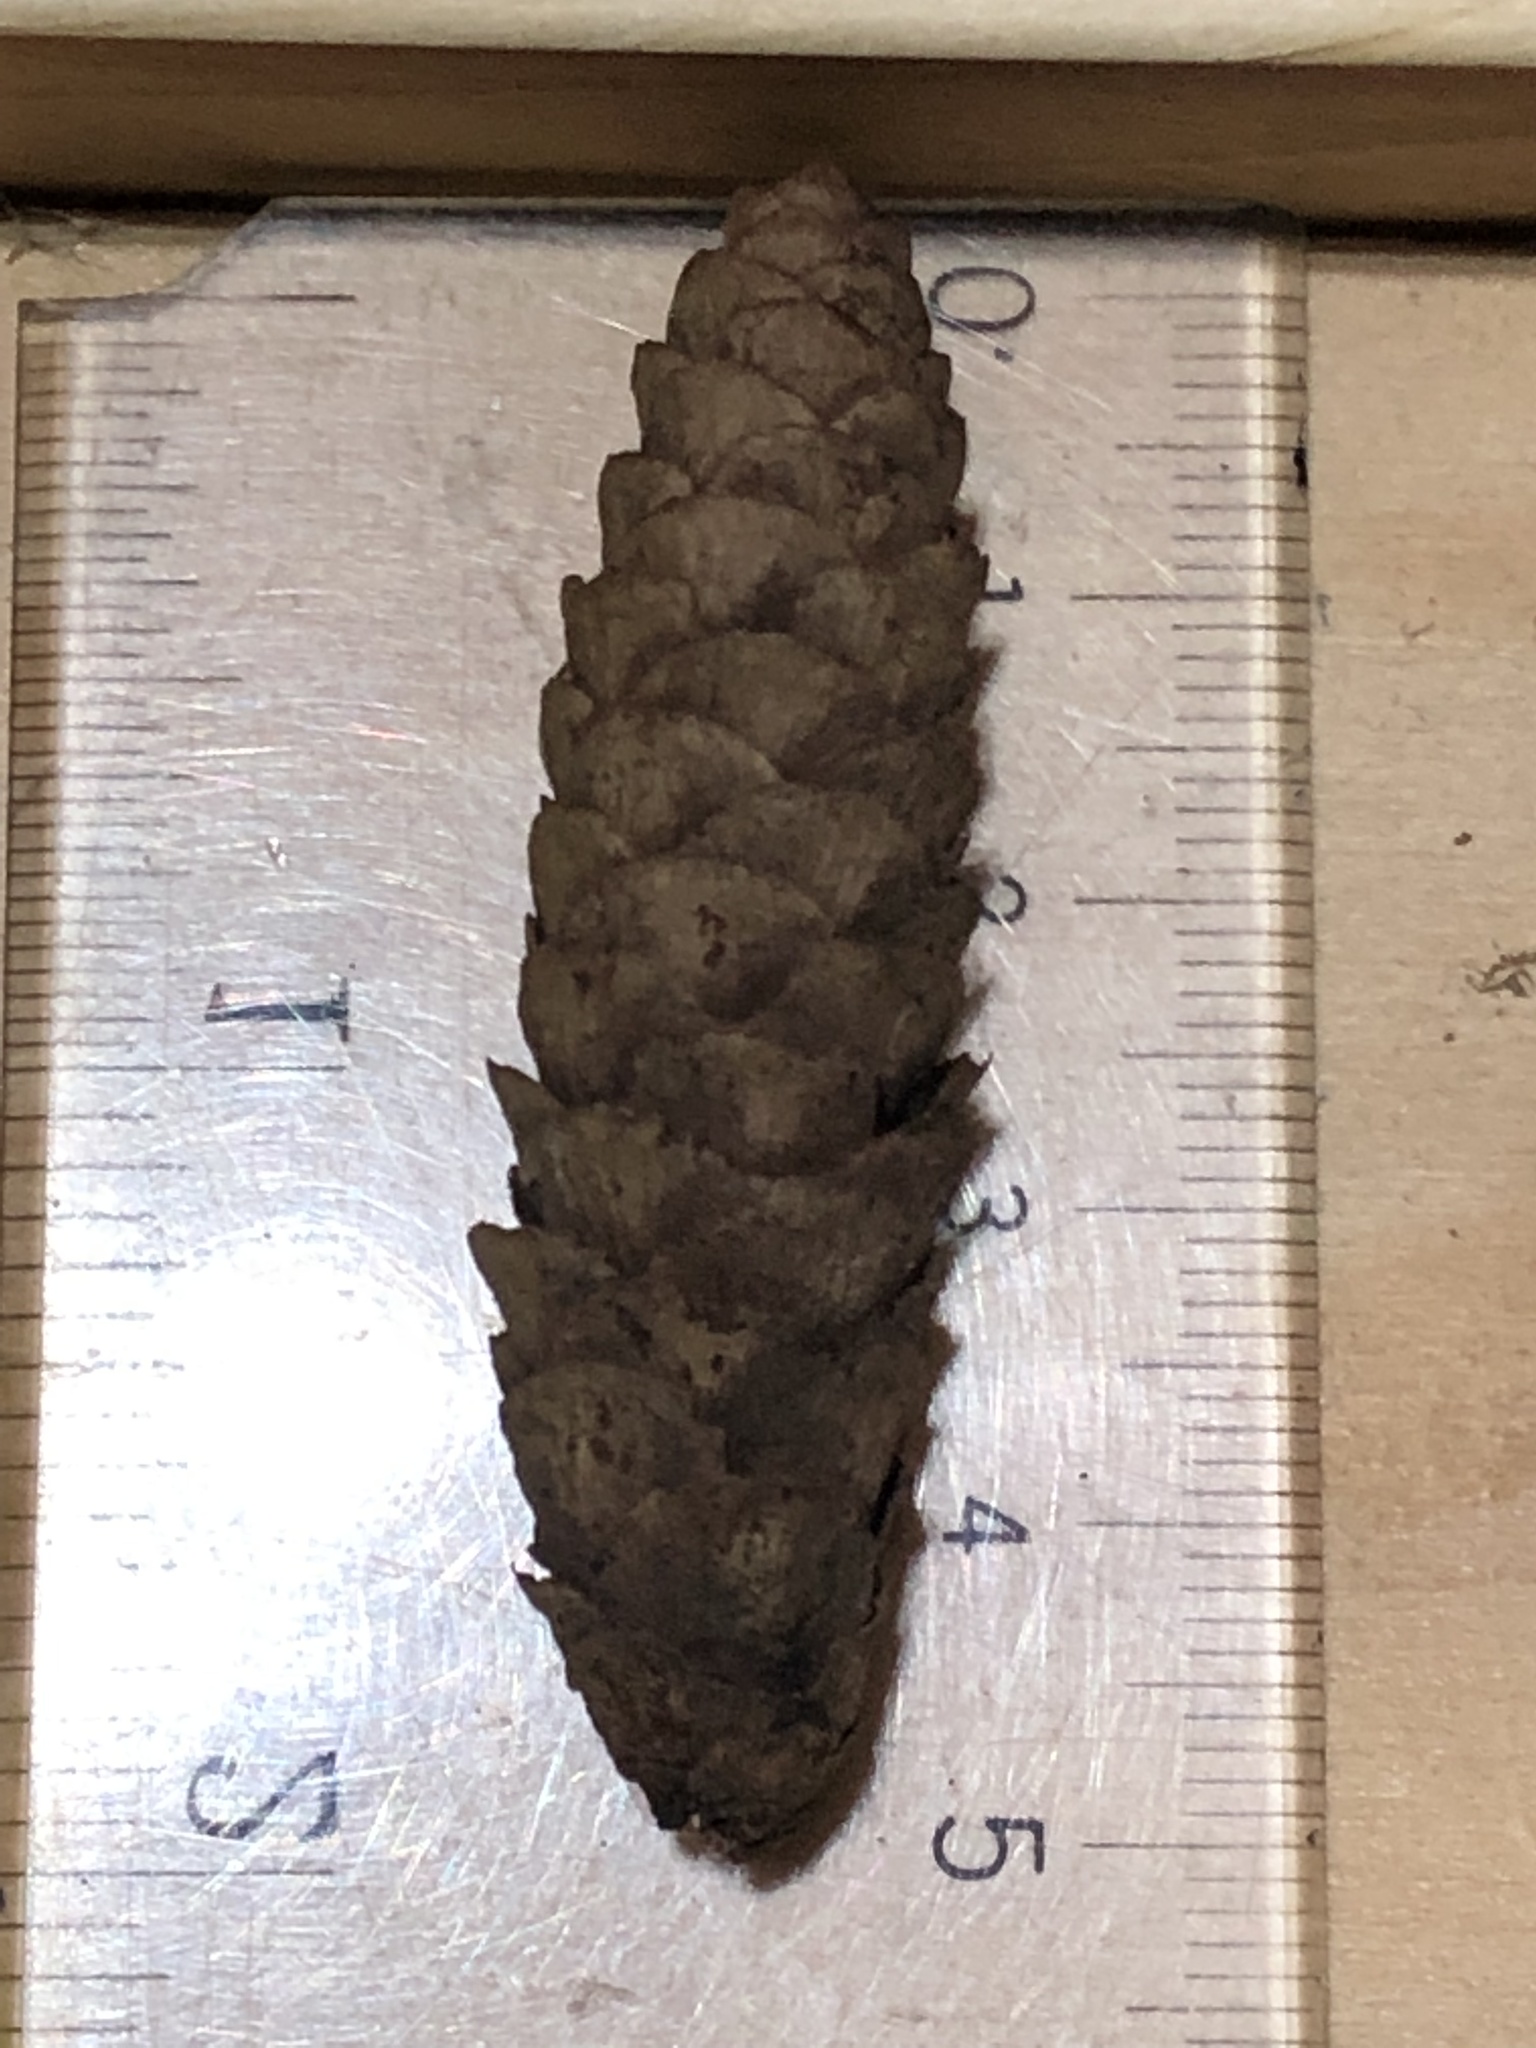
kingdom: Plantae
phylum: Tracheophyta
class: Pinopsida
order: Pinales
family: Pinaceae
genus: Picea
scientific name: Picea glauca
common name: White spruce
